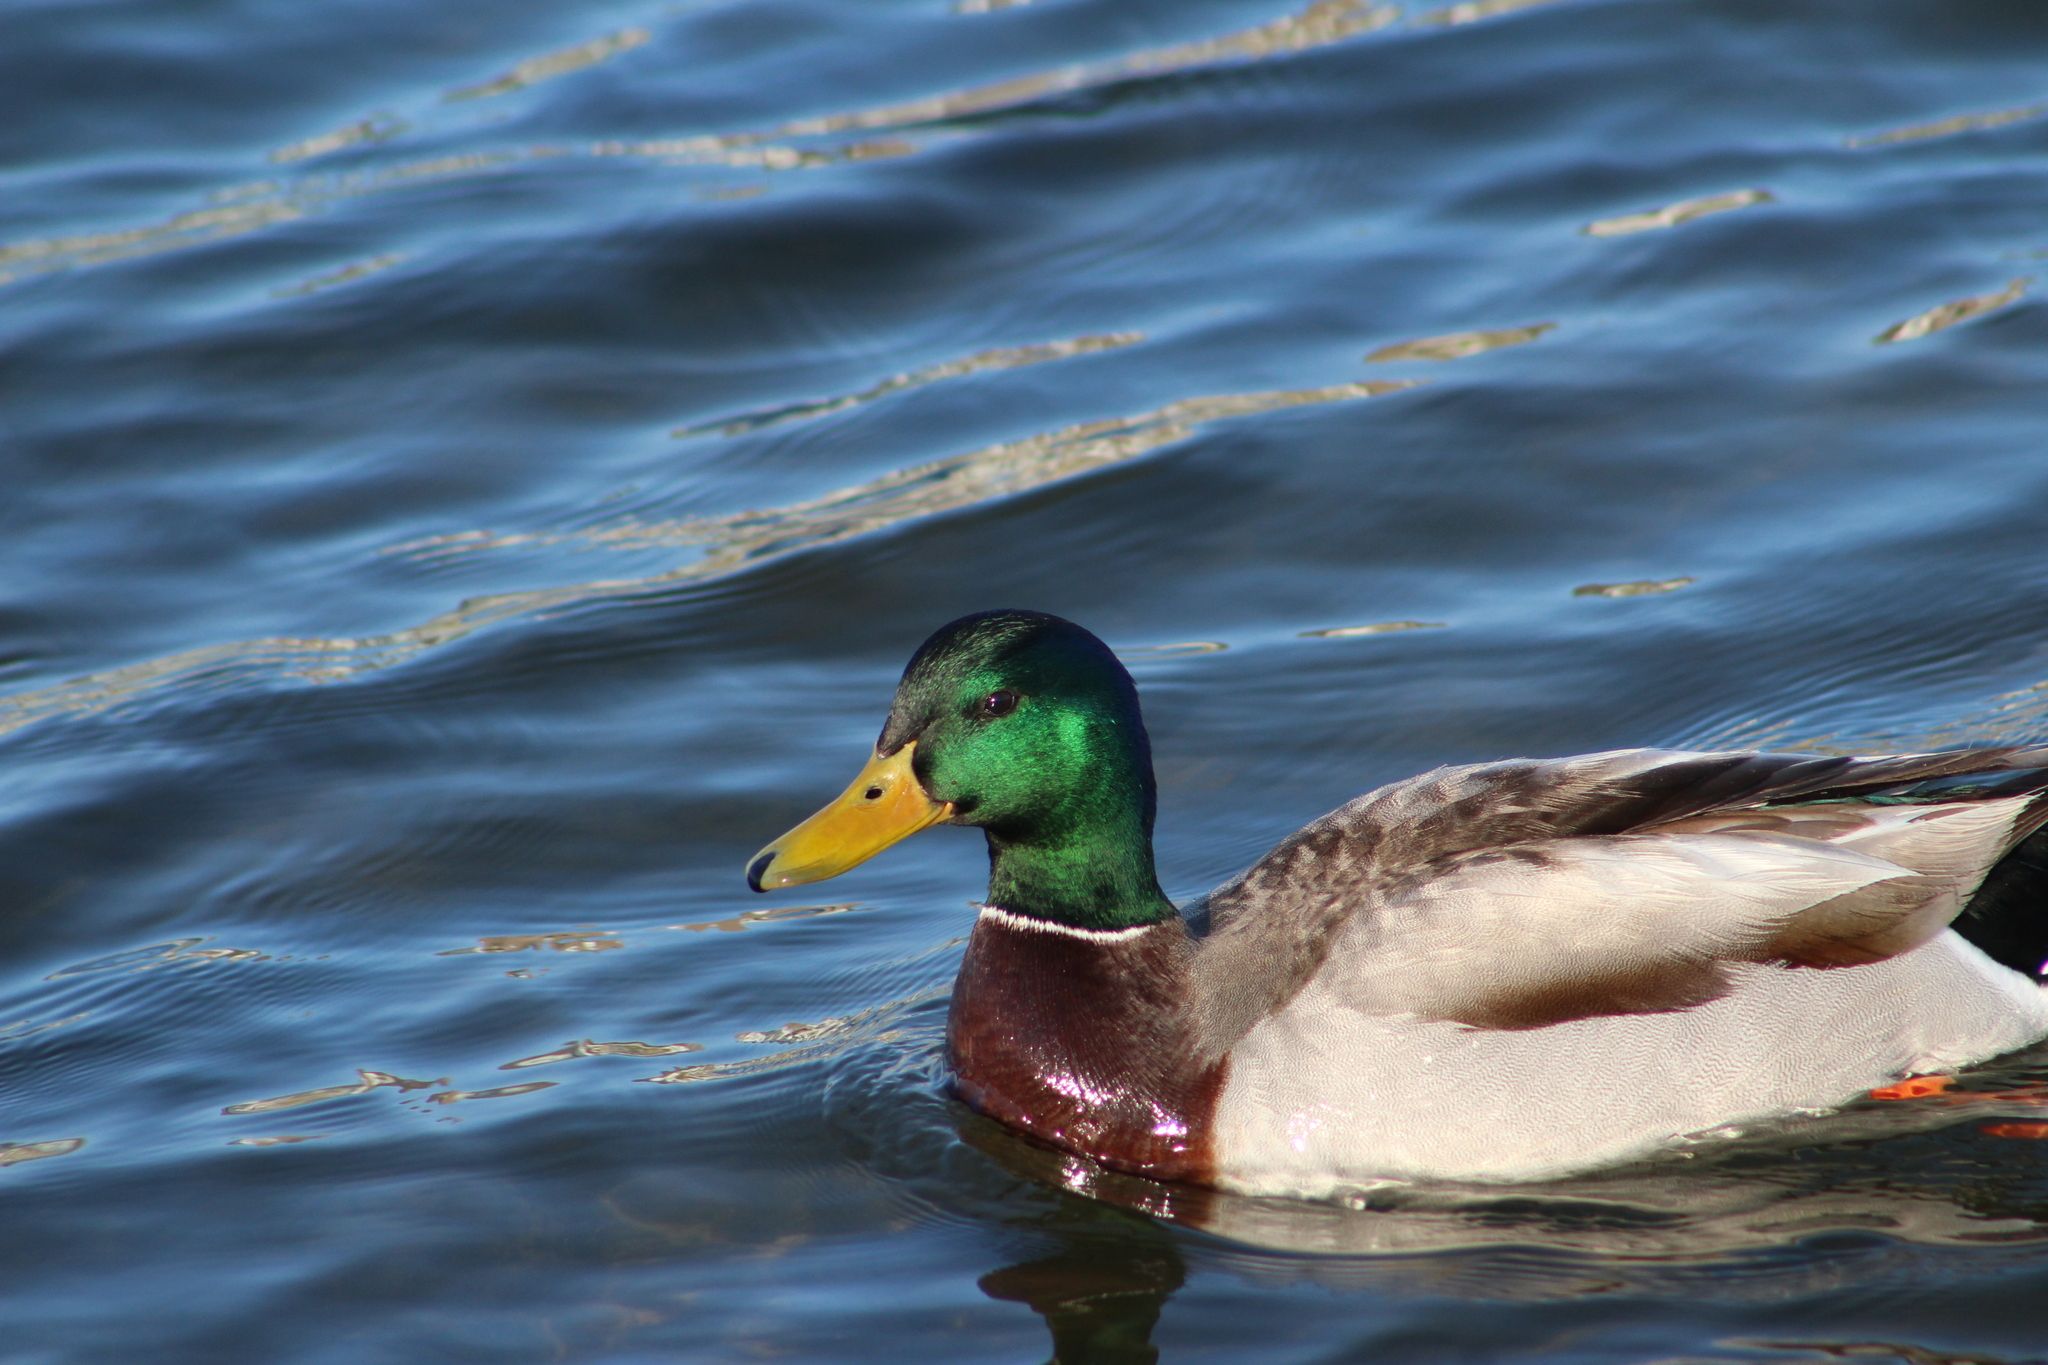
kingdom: Animalia
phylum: Chordata
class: Aves
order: Anseriformes
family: Anatidae
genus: Anas
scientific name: Anas platyrhynchos
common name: Mallard
